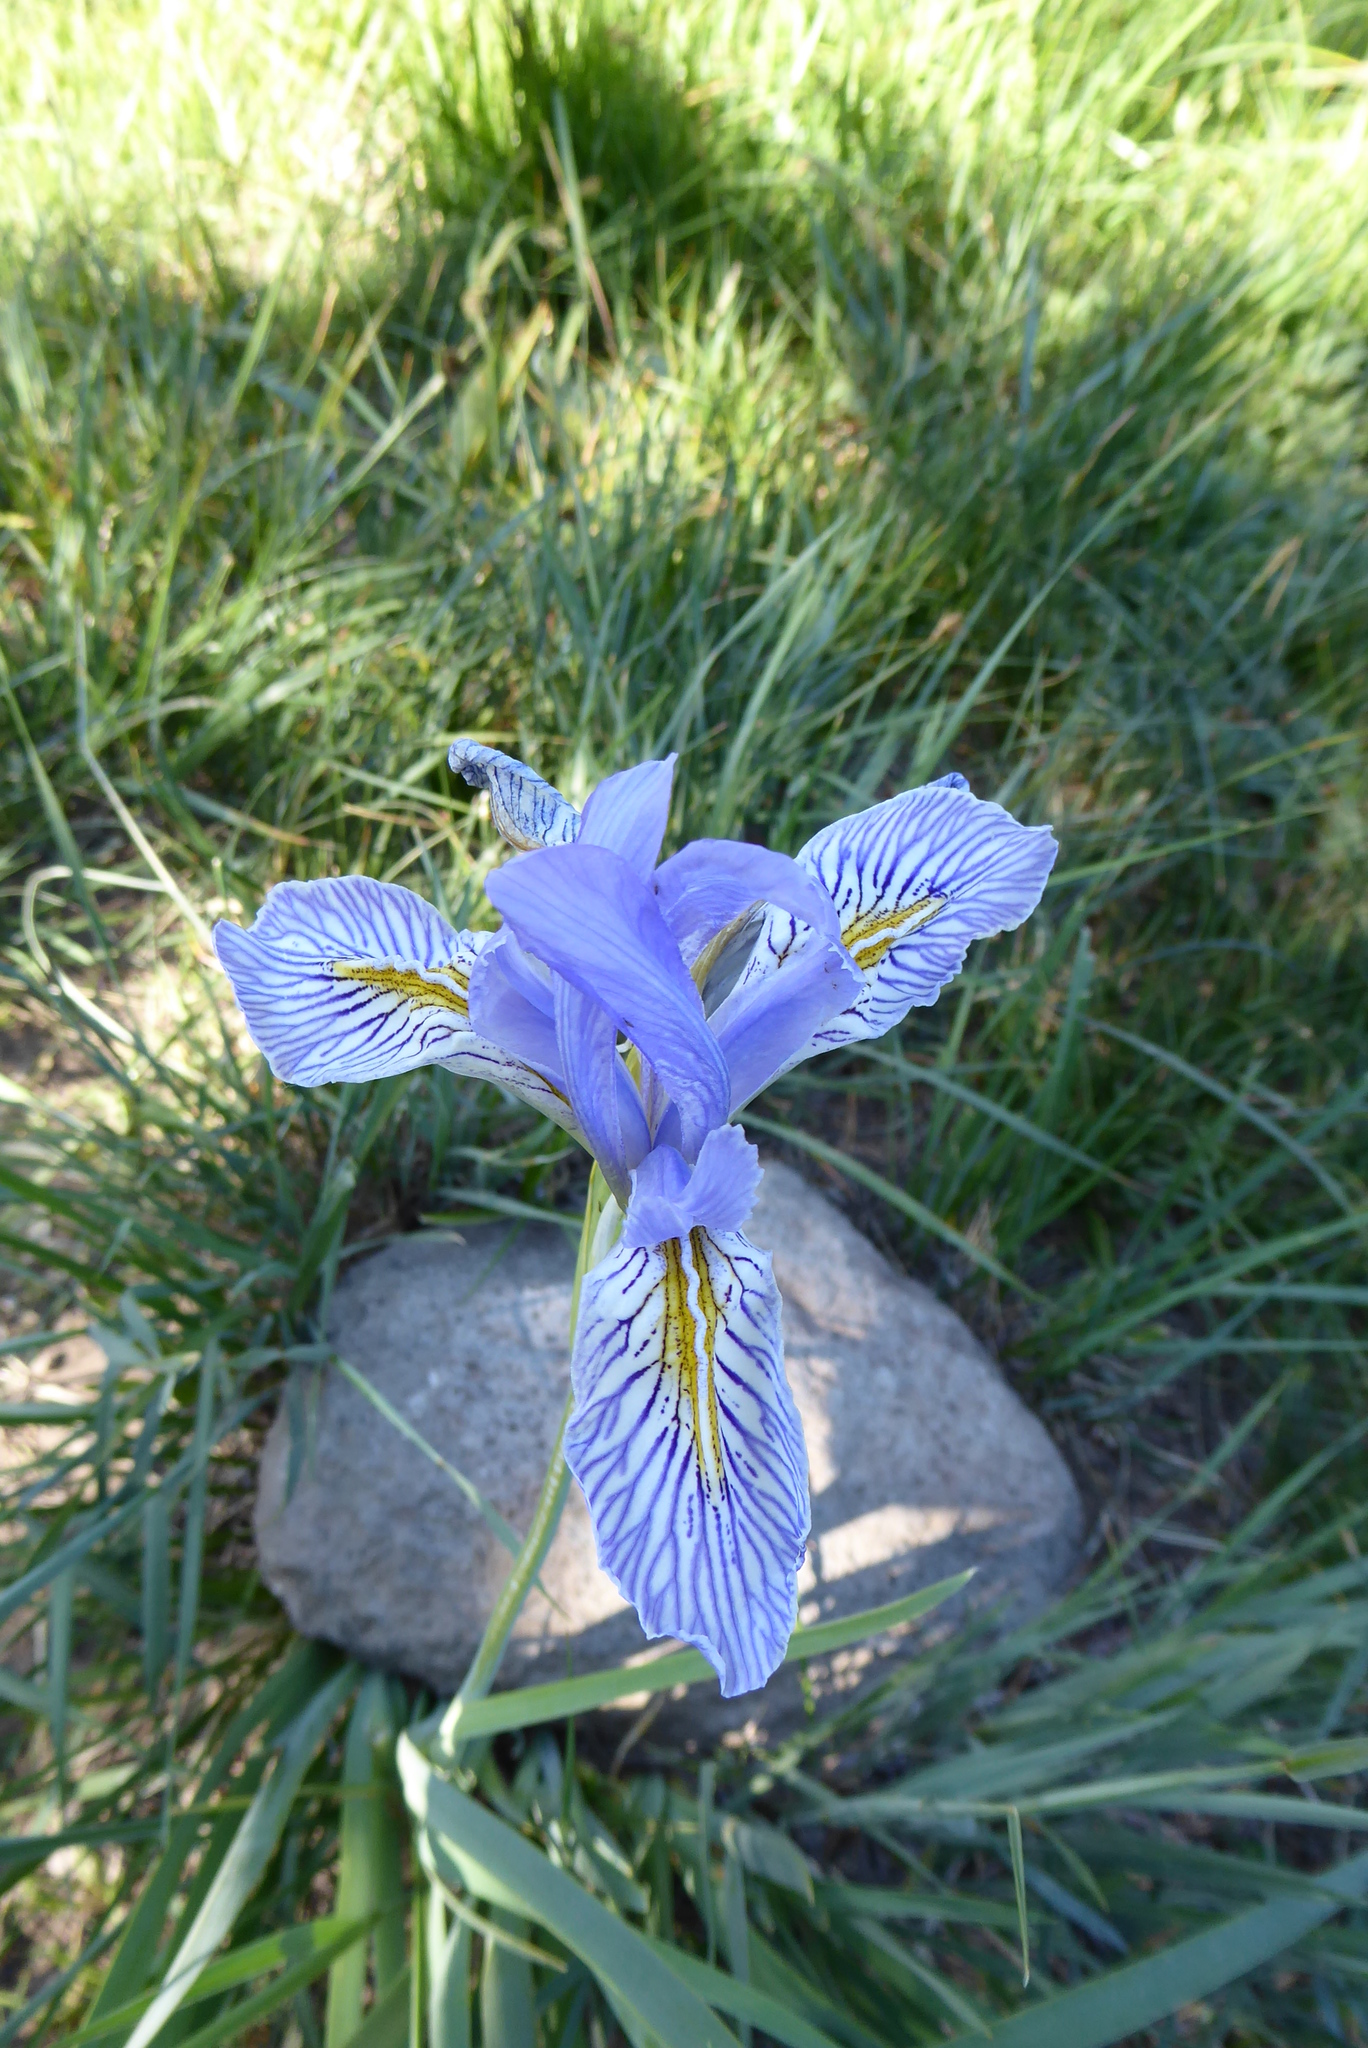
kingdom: Plantae
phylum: Tracheophyta
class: Liliopsida
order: Asparagales
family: Iridaceae
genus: Iris
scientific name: Iris missouriensis
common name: Rocky mountain iris
